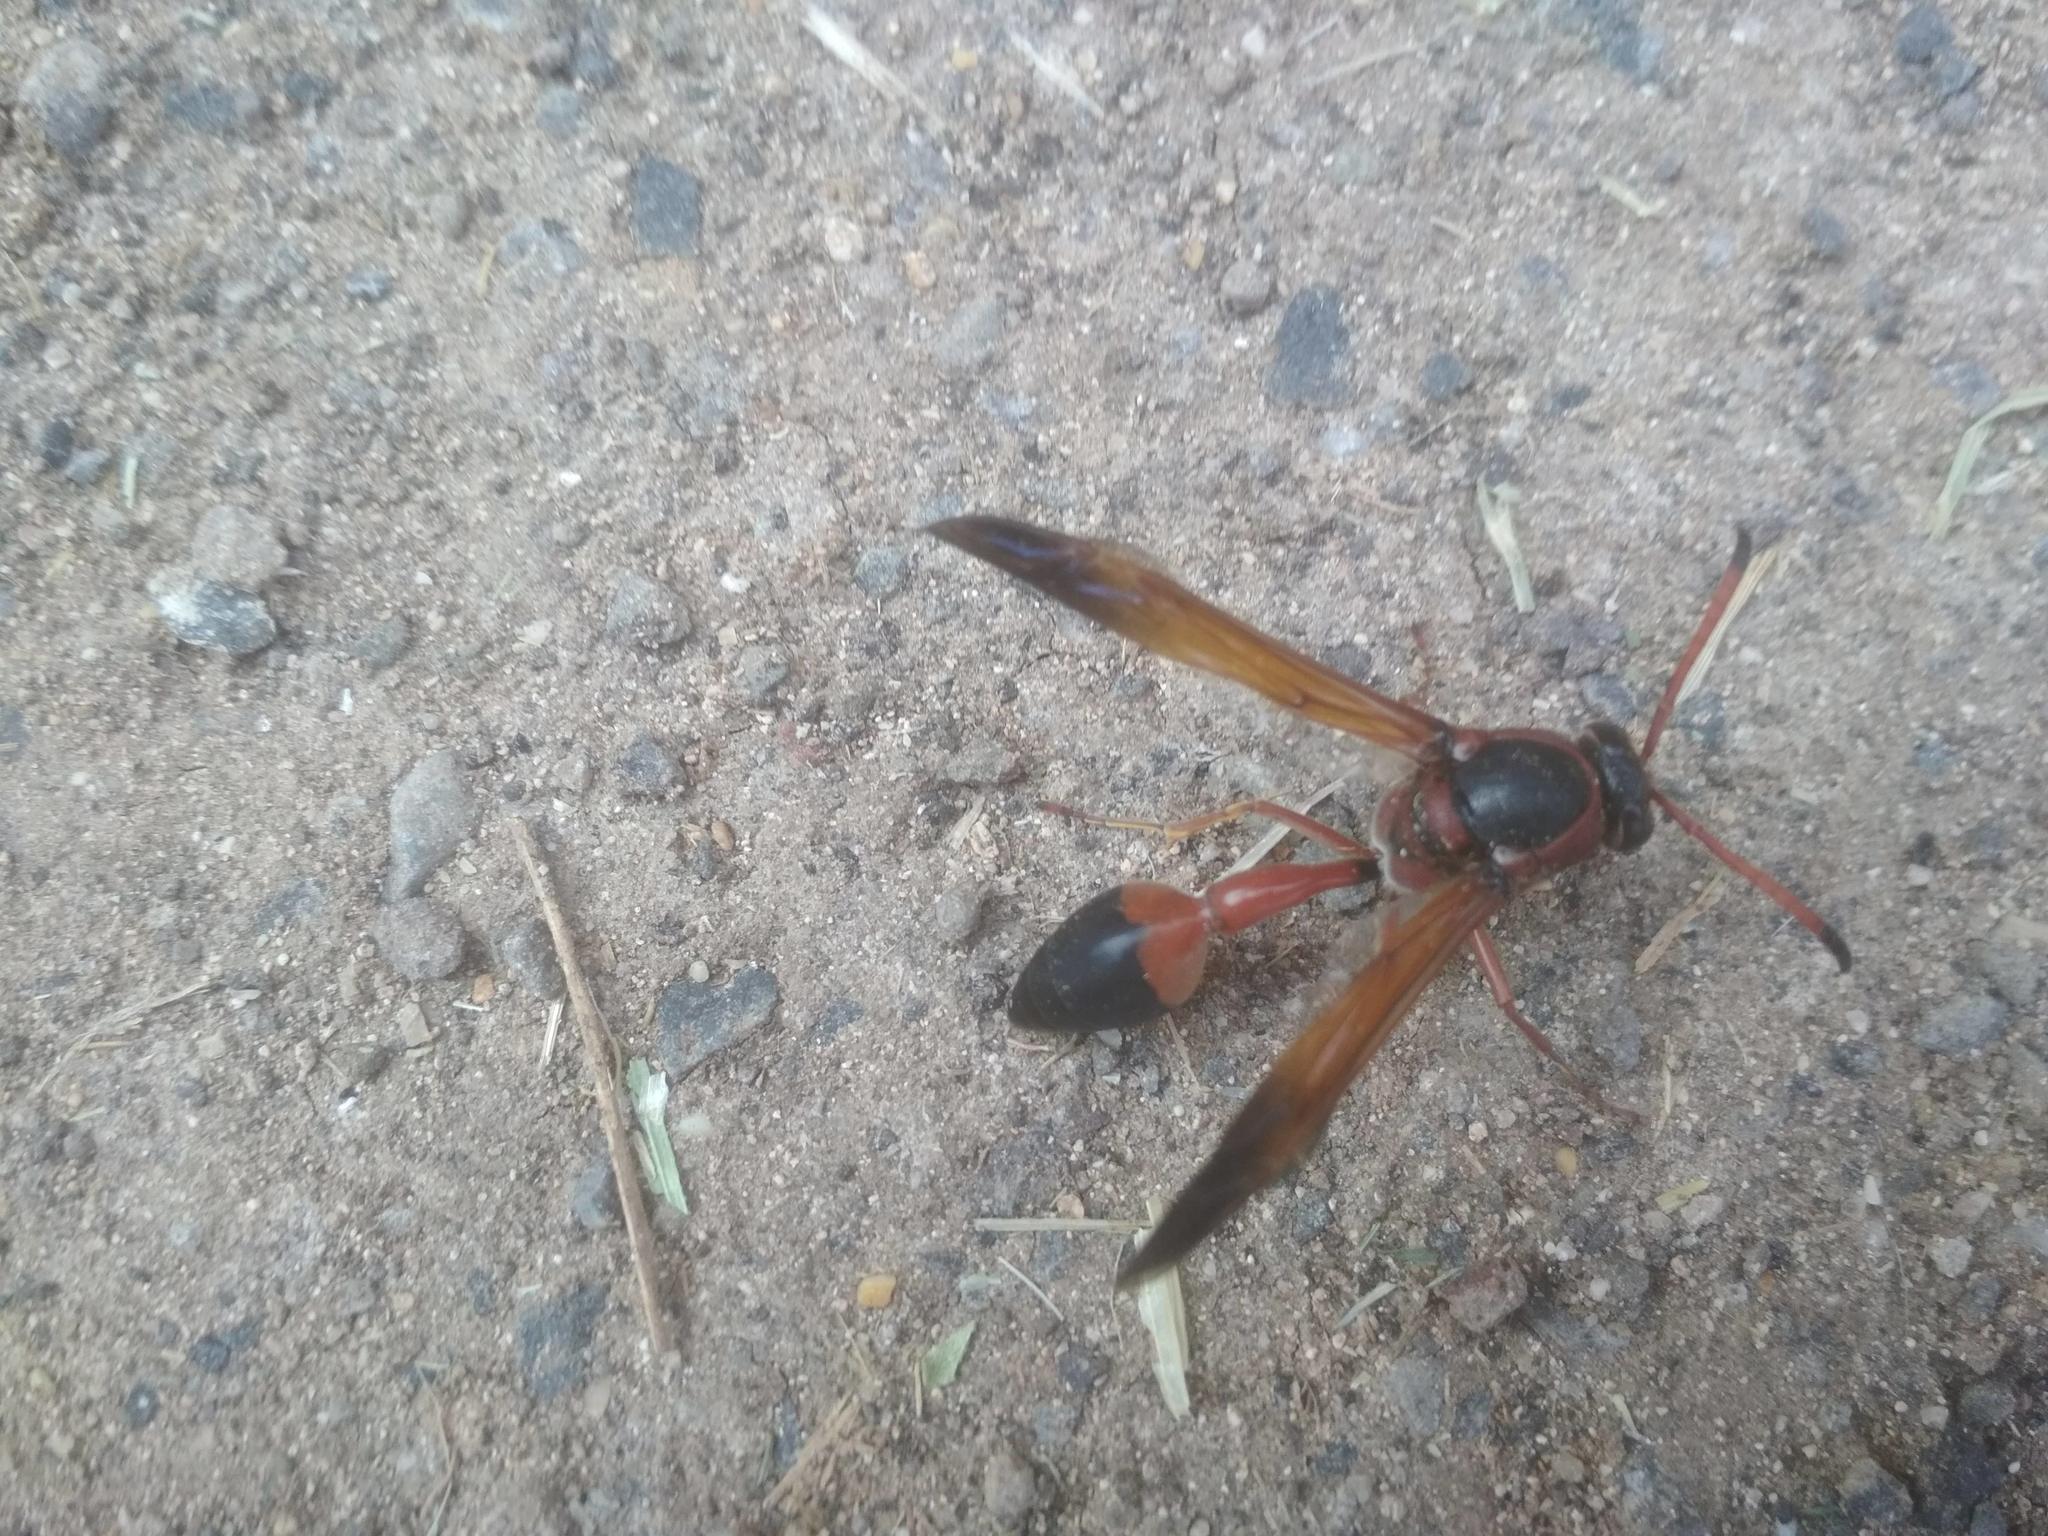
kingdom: Animalia
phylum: Arthropoda
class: Insecta
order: Hymenoptera
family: Eumenidae
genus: Delta
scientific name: Delta dimidiatipenne
